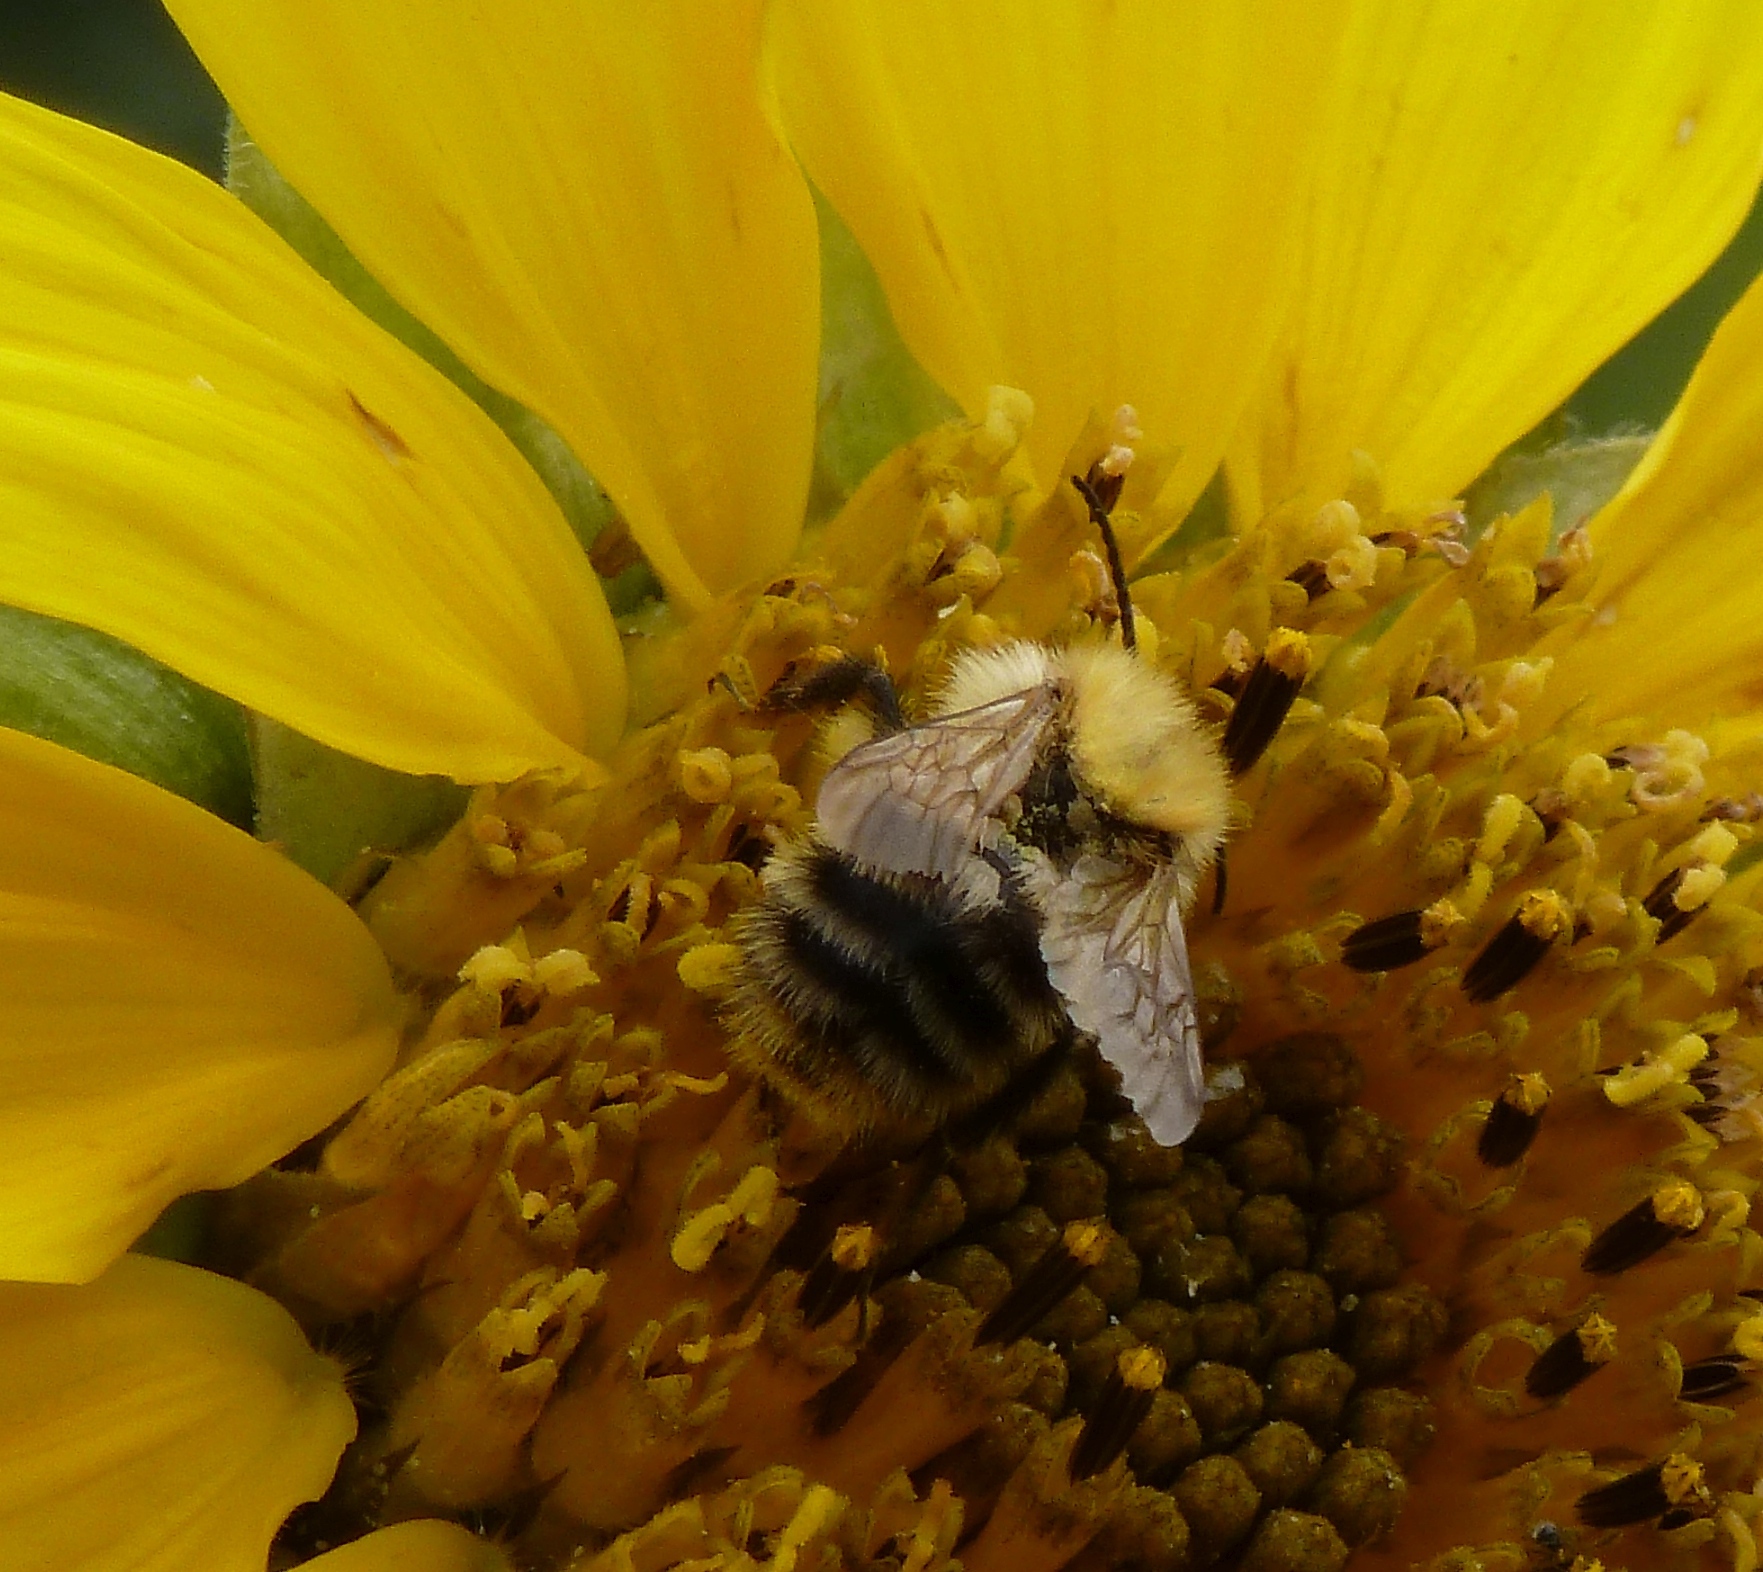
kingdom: Animalia
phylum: Arthropoda
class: Insecta
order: Hymenoptera
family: Apidae
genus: Bombus
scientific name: Bombus pascuorum
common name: Common carder bee
